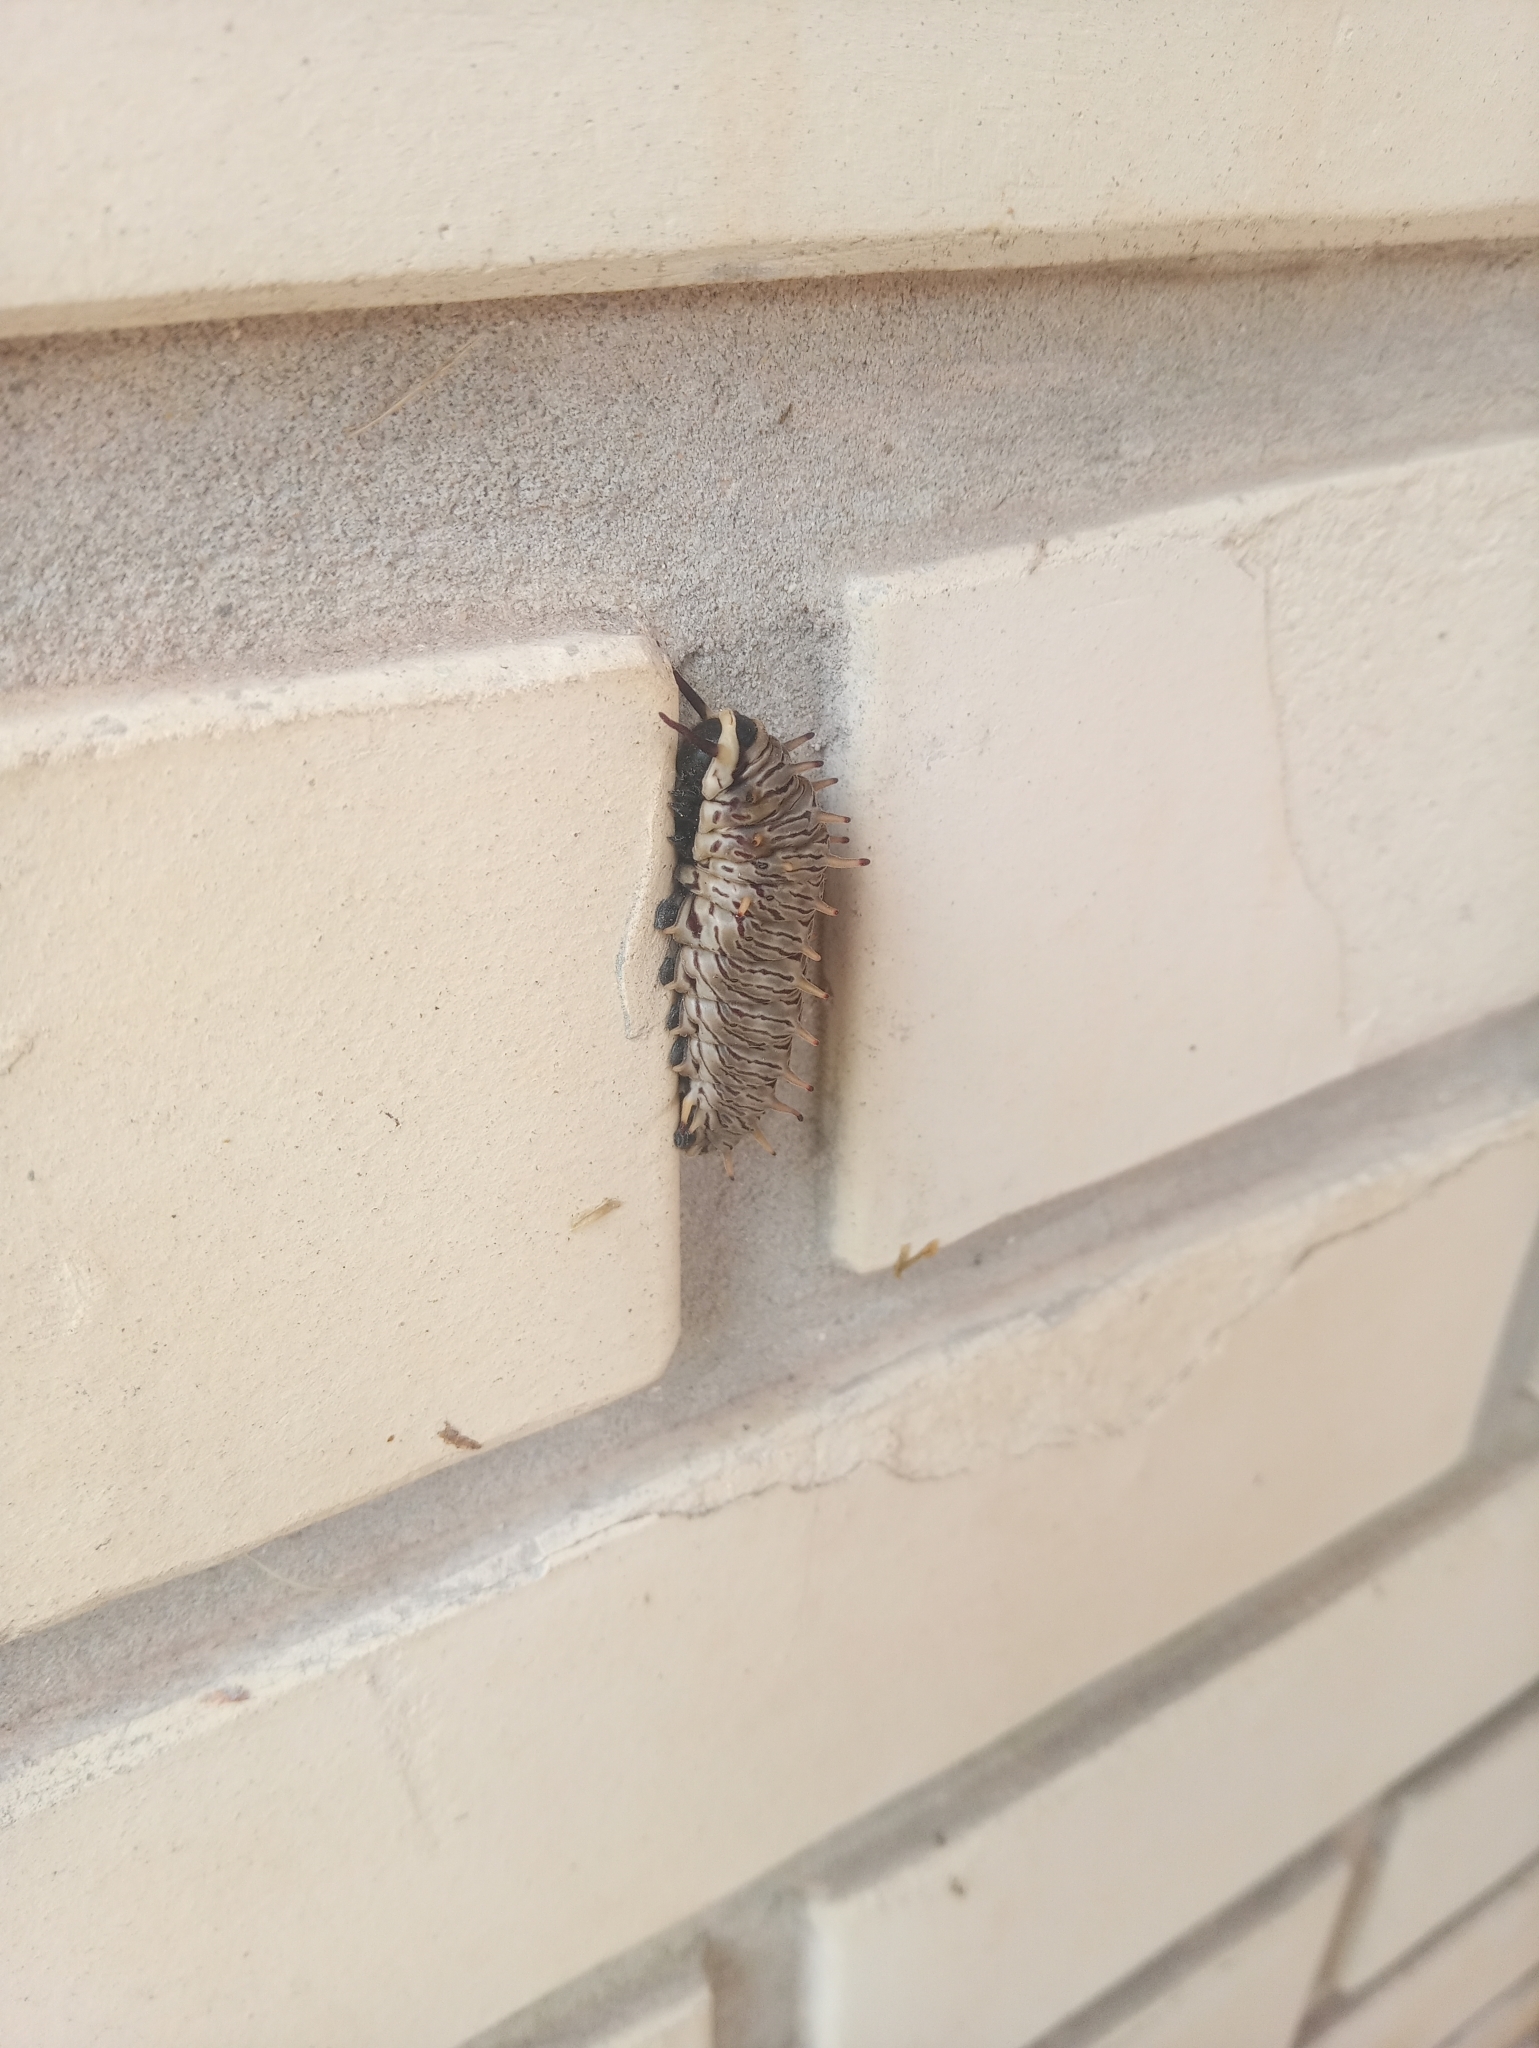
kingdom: Animalia
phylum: Arthropoda
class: Insecta
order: Lepidoptera
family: Papilionidae
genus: Battus
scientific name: Battus polydamas
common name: Polydamas swallowtail
